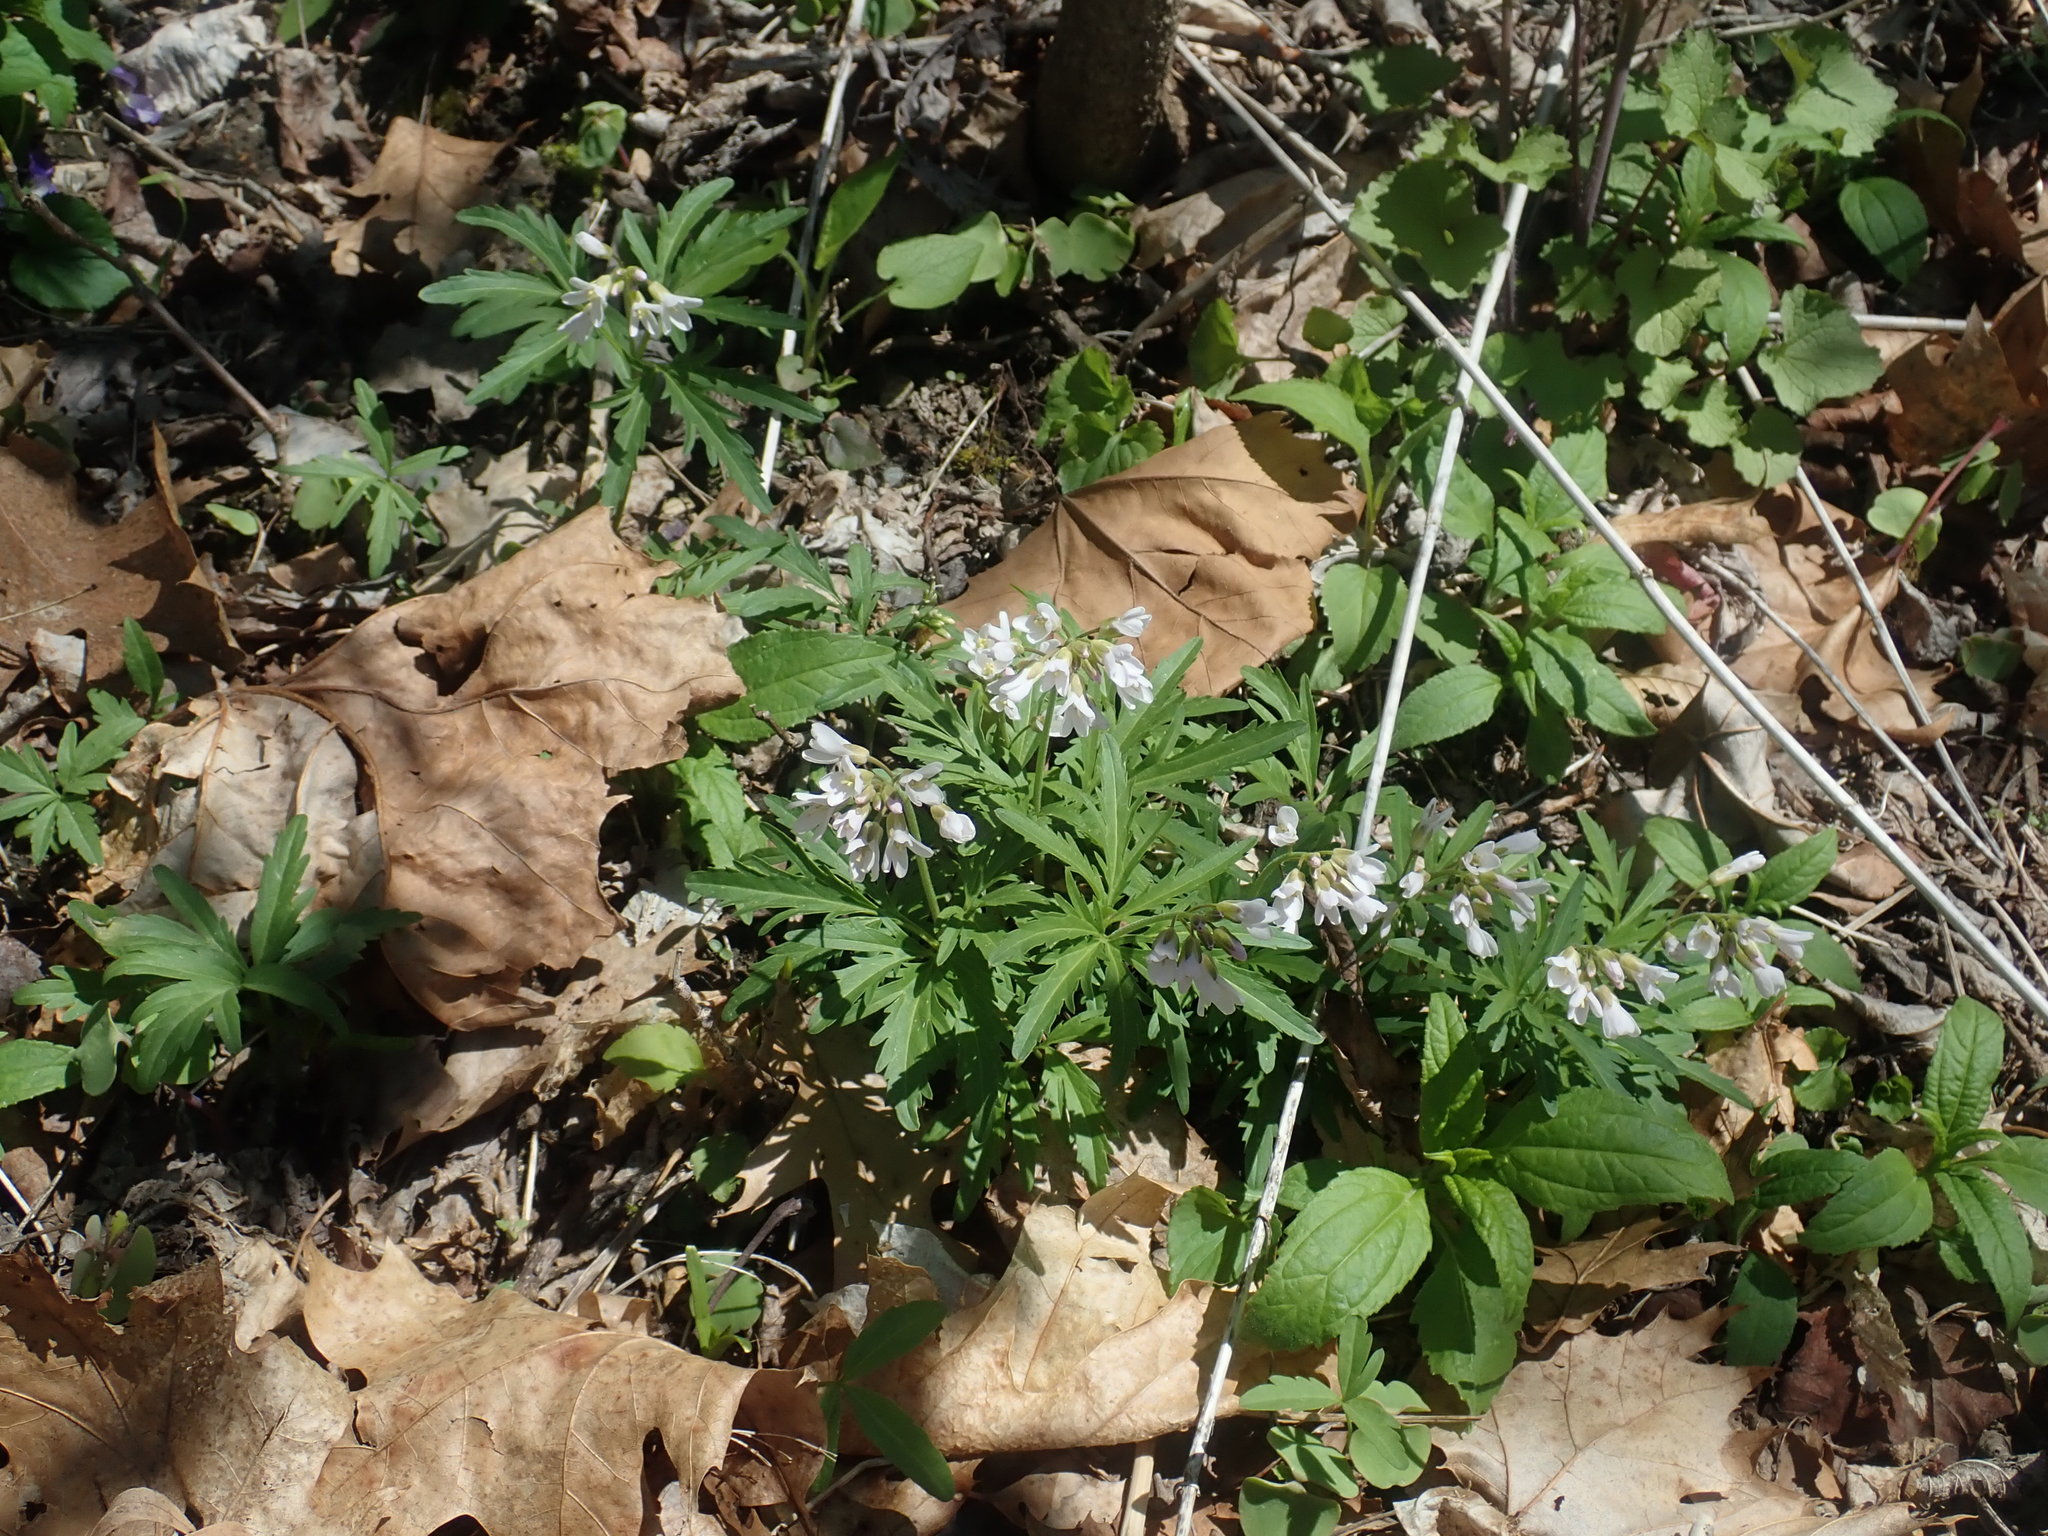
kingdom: Plantae
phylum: Tracheophyta
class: Magnoliopsida
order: Brassicales
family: Brassicaceae
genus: Cardamine
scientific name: Cardamine concatenata
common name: Cut-leaf toothcup
